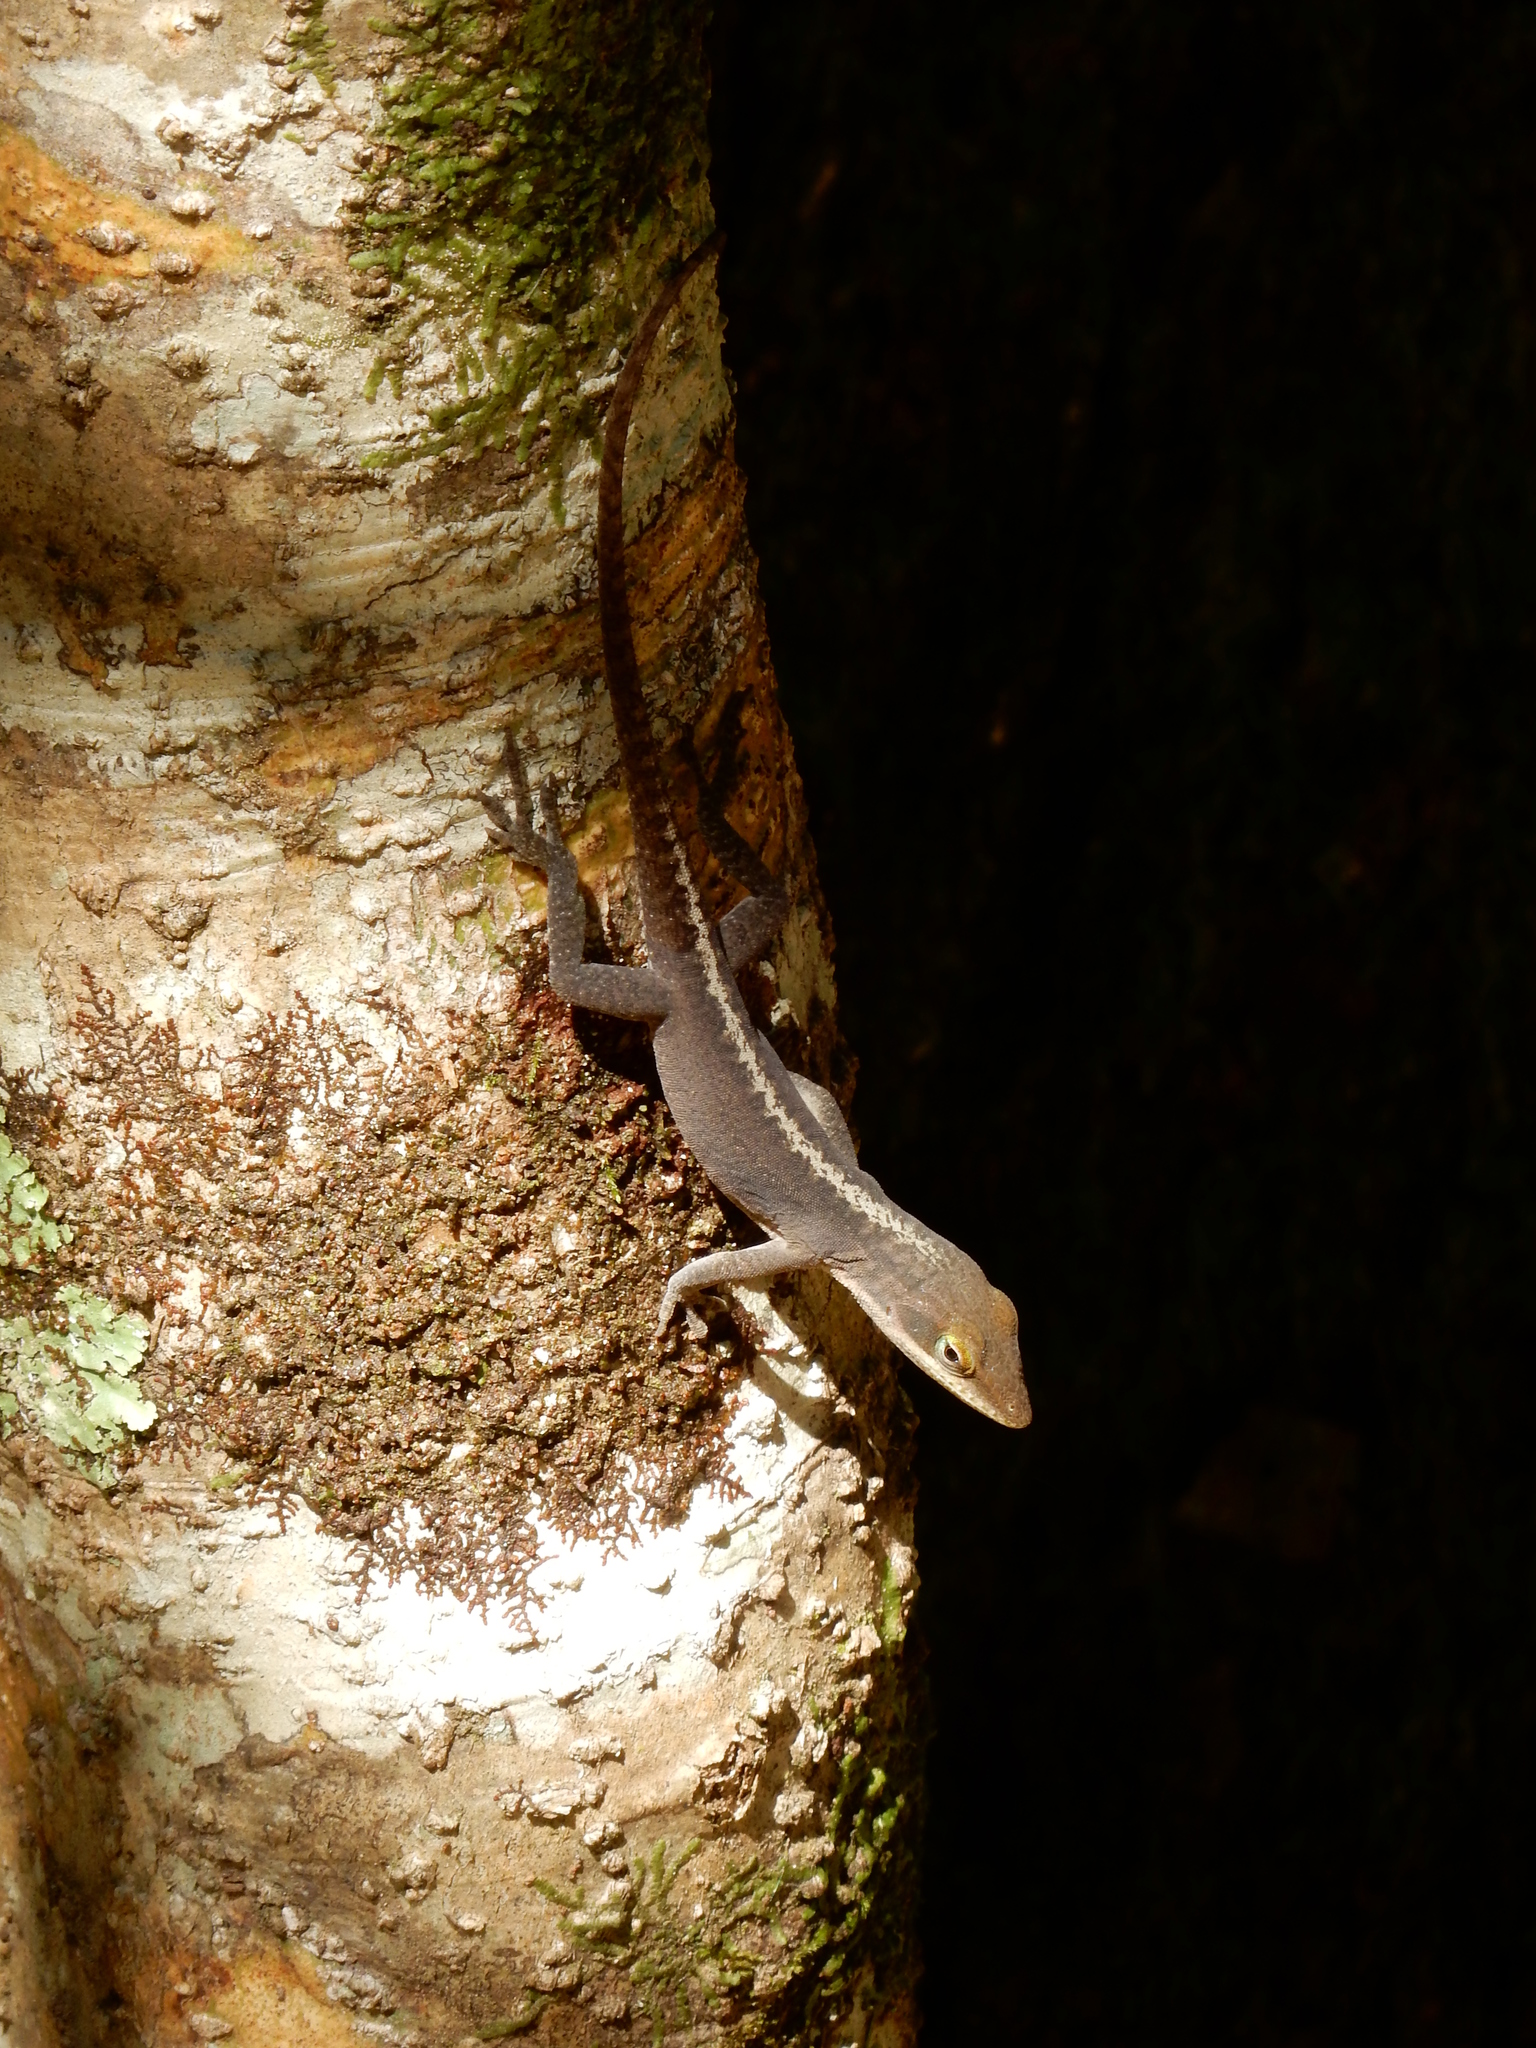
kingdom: Animalia
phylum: Chordata
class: Squamata
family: Dactyloidae
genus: Anolis
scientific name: Anolis carolinensis
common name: Green anole
